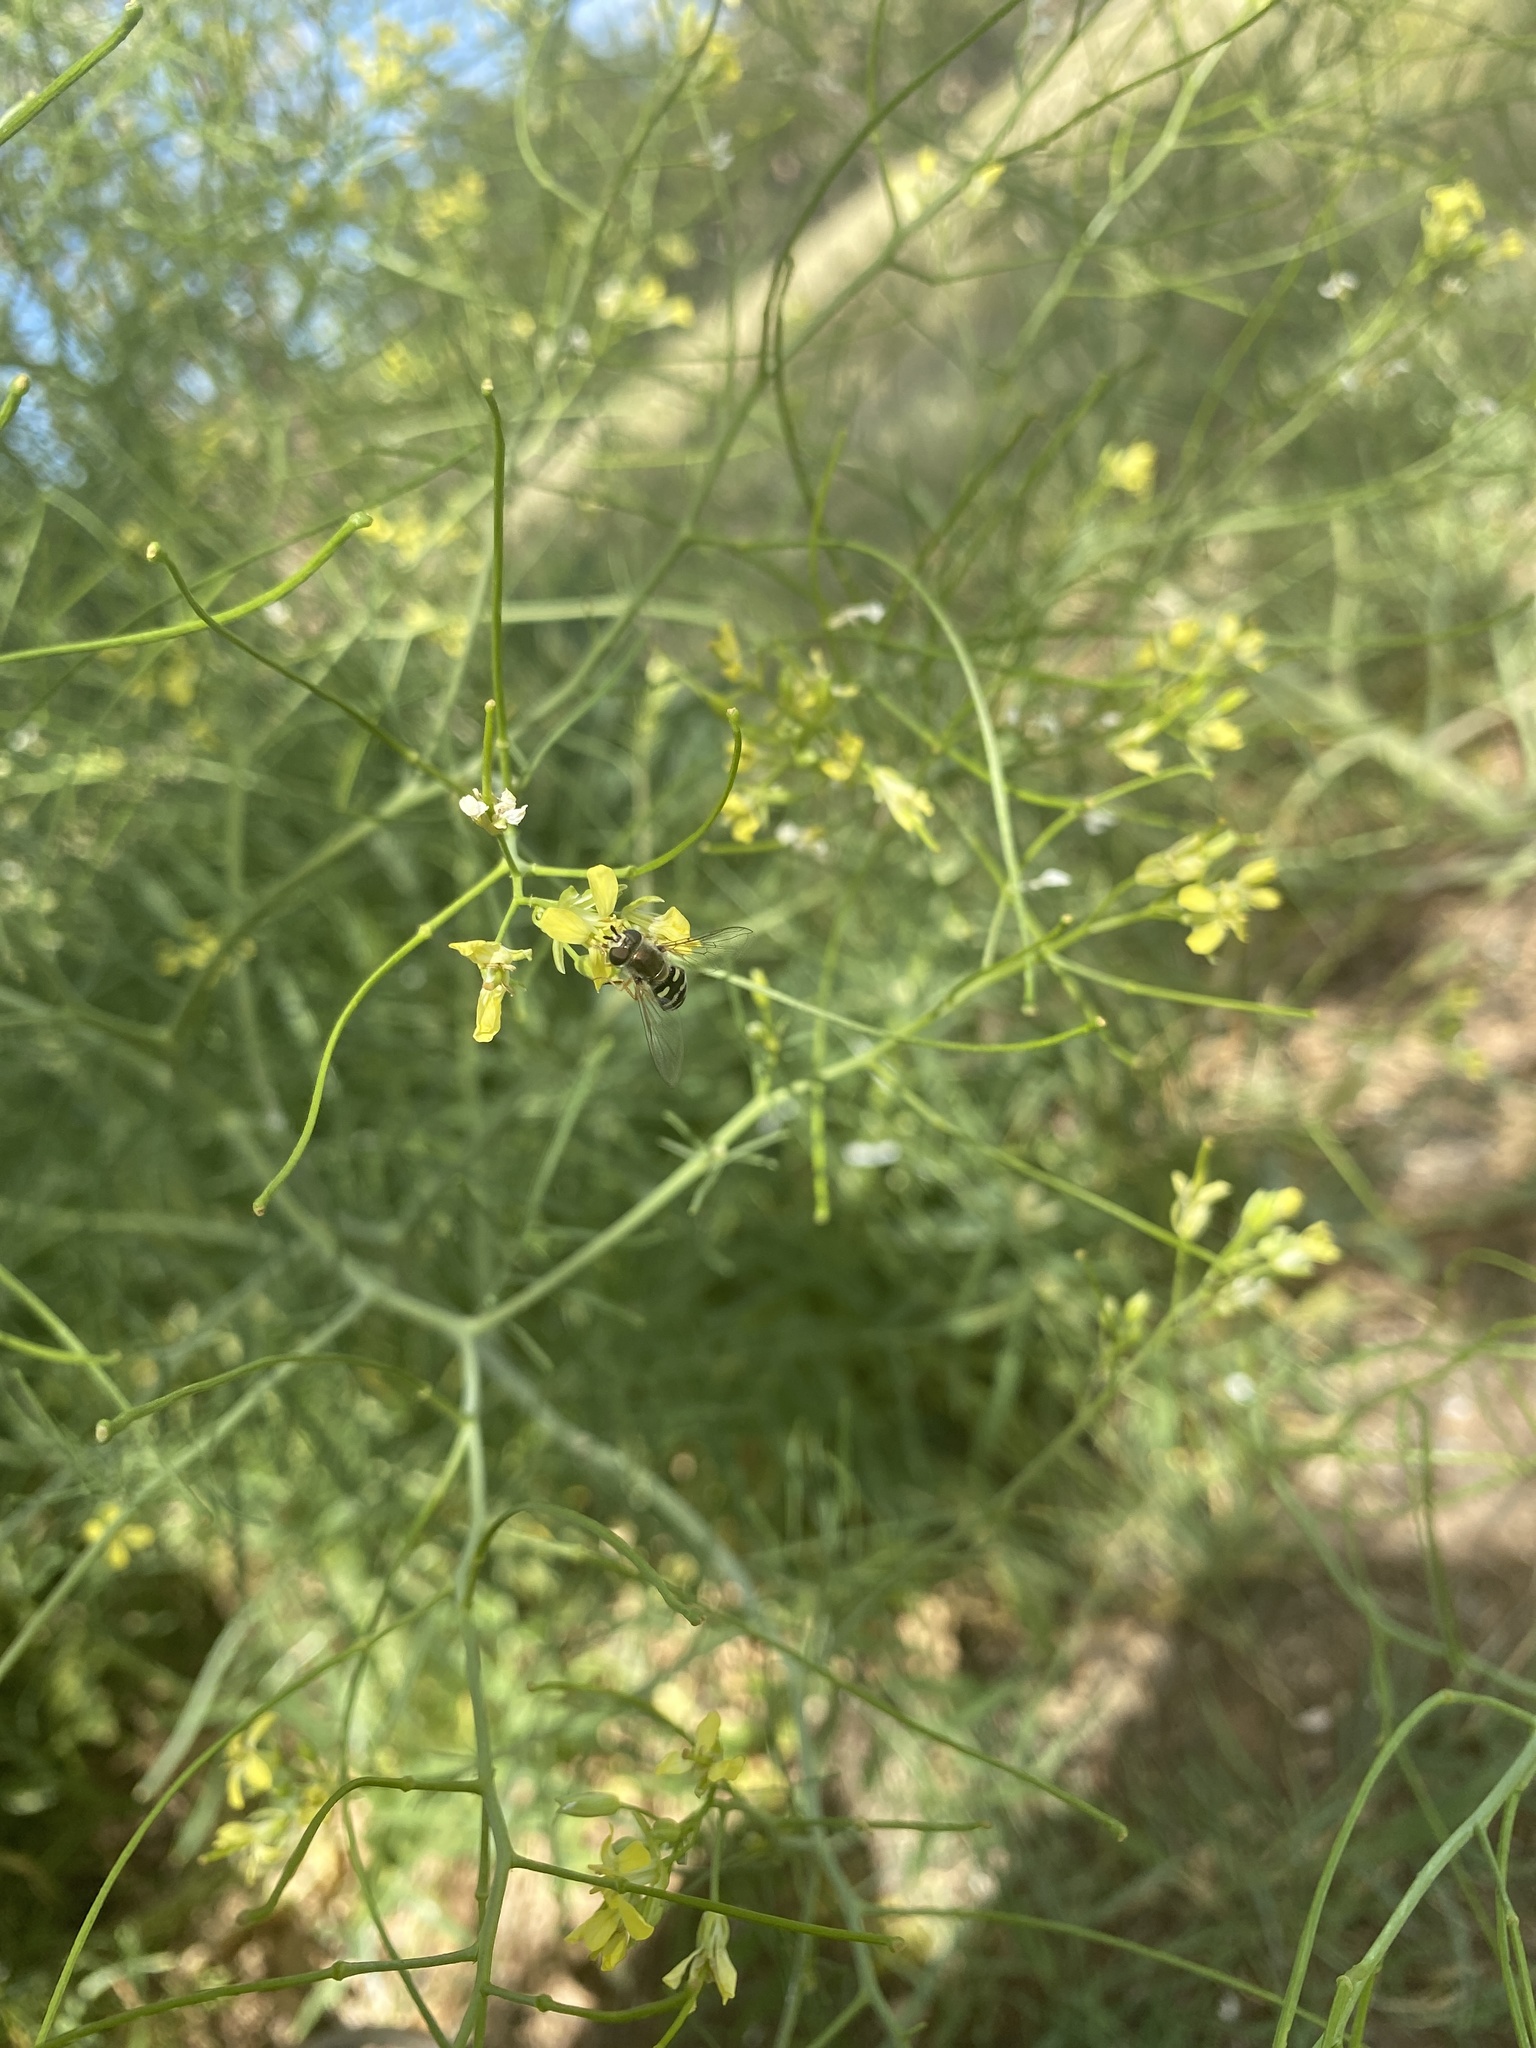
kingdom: Animalia
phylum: Arthropoda
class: Insecta
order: Diptera
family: Syrphidae
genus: Eupeodes
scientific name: Eupeodes volucris
